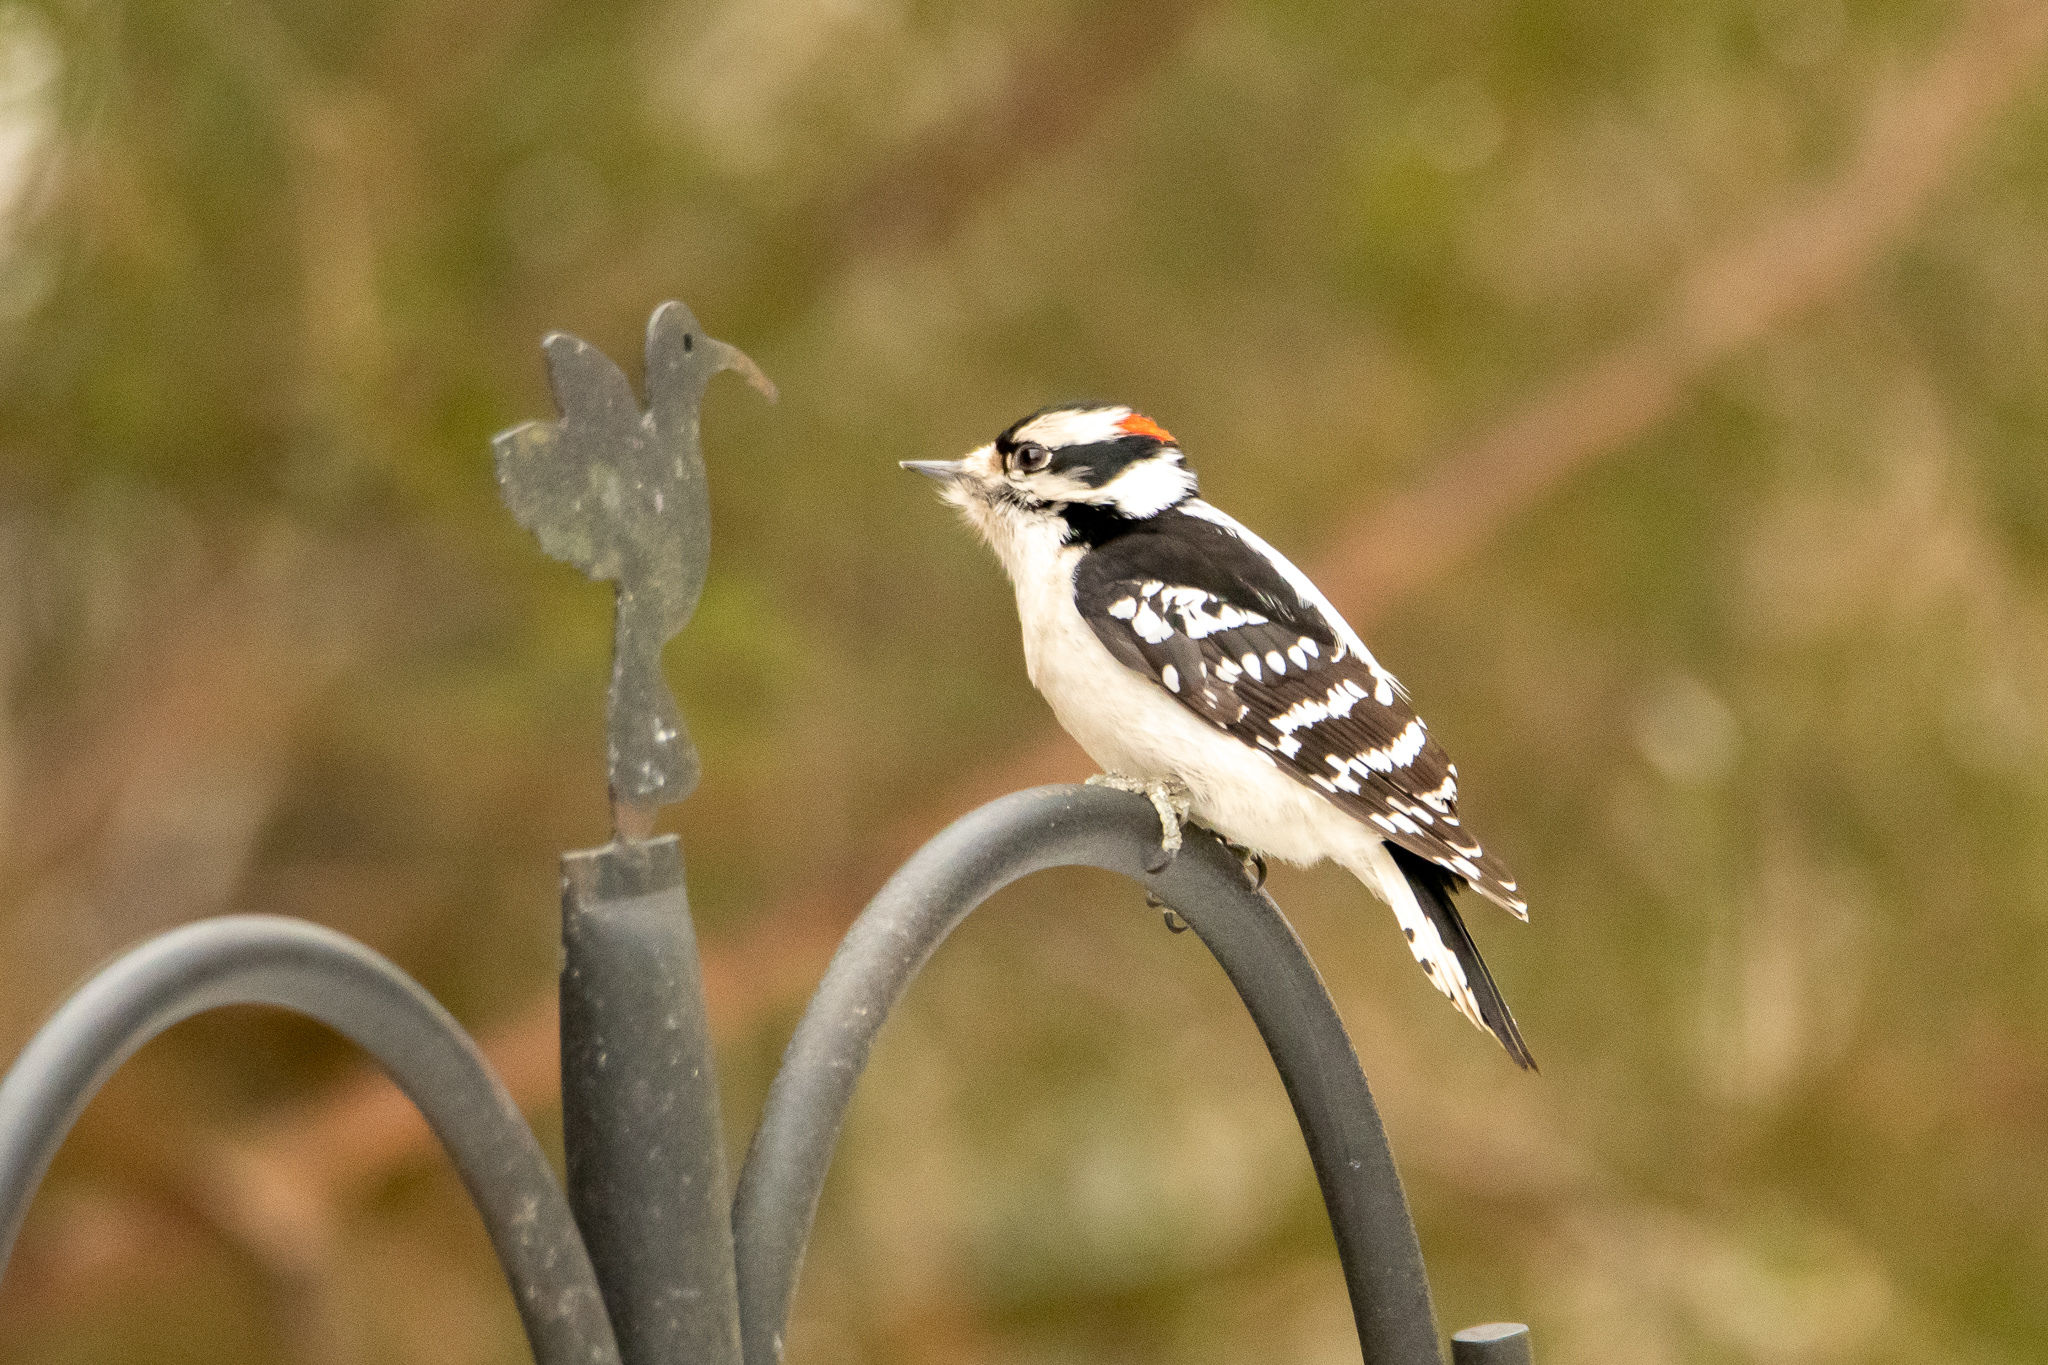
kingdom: Animalia
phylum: Chordata
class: Aves
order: Piciformes
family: Picidae
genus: Dryobates
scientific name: Dryobates pubescens
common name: Downy woodpecker
